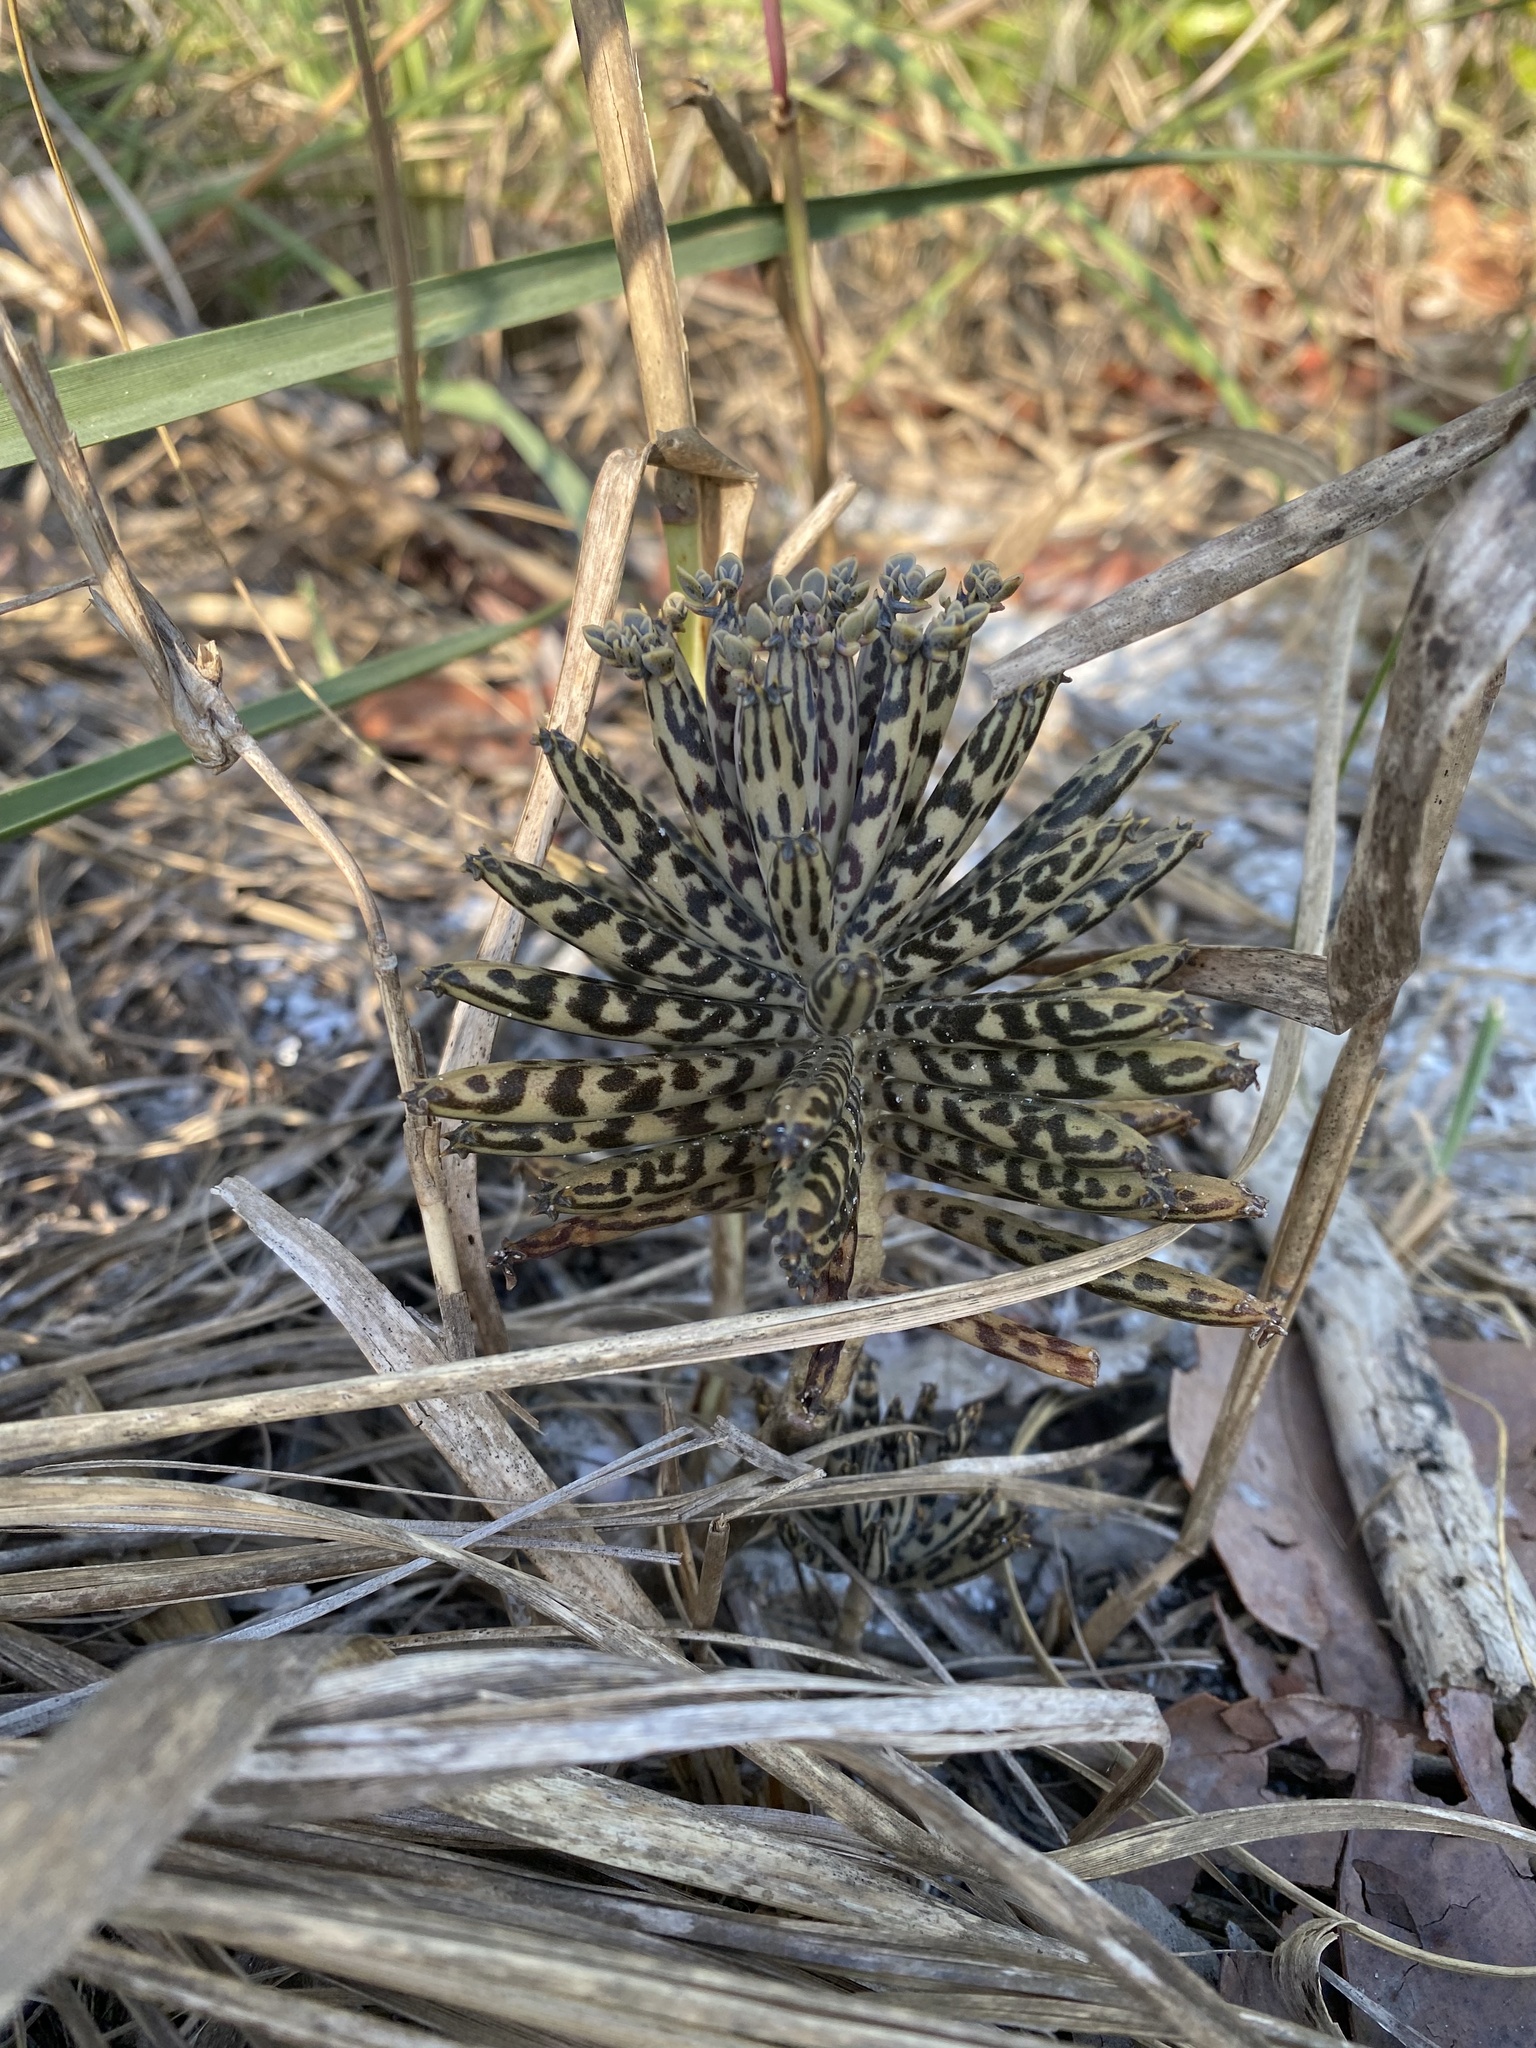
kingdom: Plantae
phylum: Tracheophyta
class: Magnoliopsida
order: Saxifragales
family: Crassulaceae
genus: Kalanchoe
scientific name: Kalanchoe delagoensis
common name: Chandelier plant
